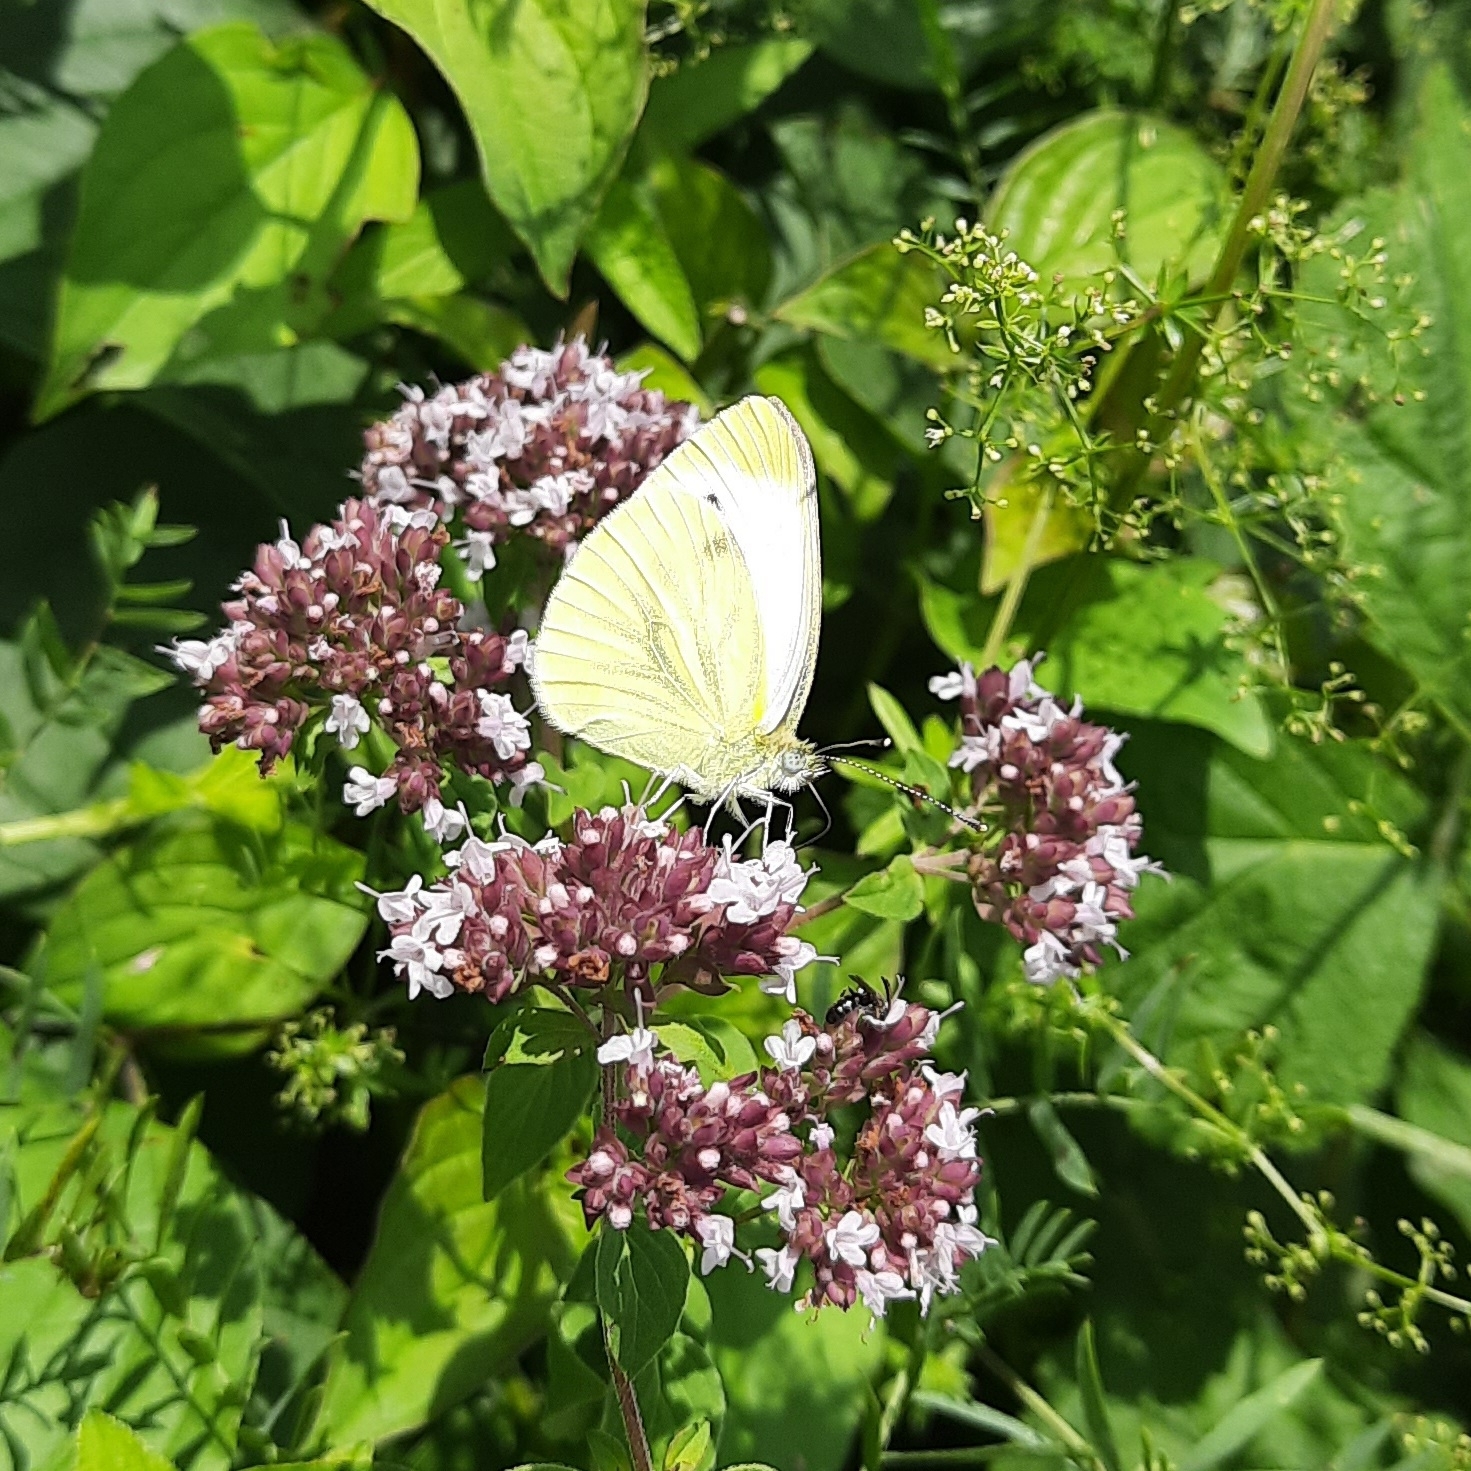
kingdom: Animalia
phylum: Arthropoda
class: Insecta
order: Lepidoptera
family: Pieridae
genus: Pieris
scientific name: Pieris napi
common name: Green-veined white
